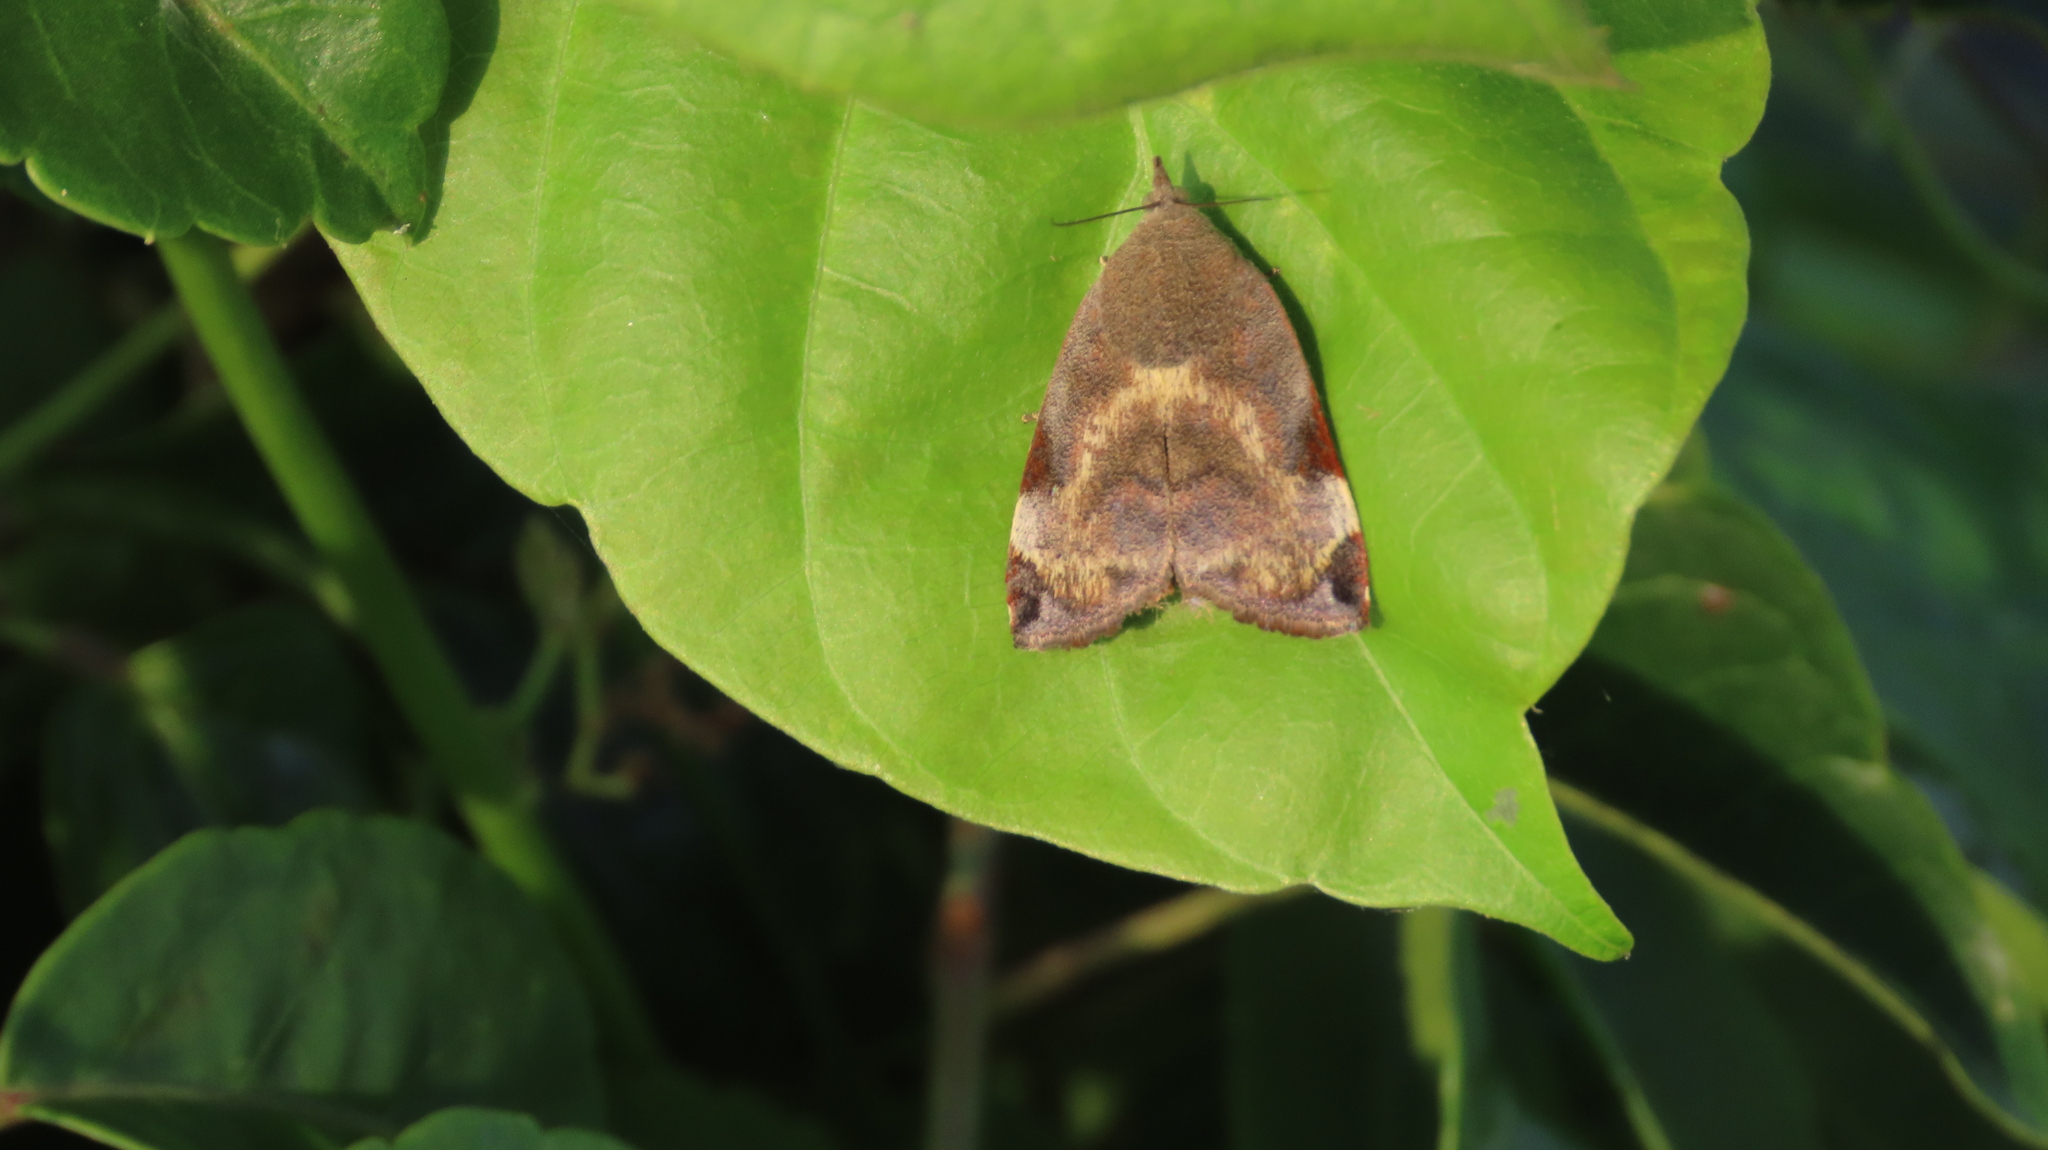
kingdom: Animalia
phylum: Arthropoda
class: Insecta
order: Lepidoptera
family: Hyblaeidae
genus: Hyblaea
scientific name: Hyblaea puera
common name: Teak defoliator moth
